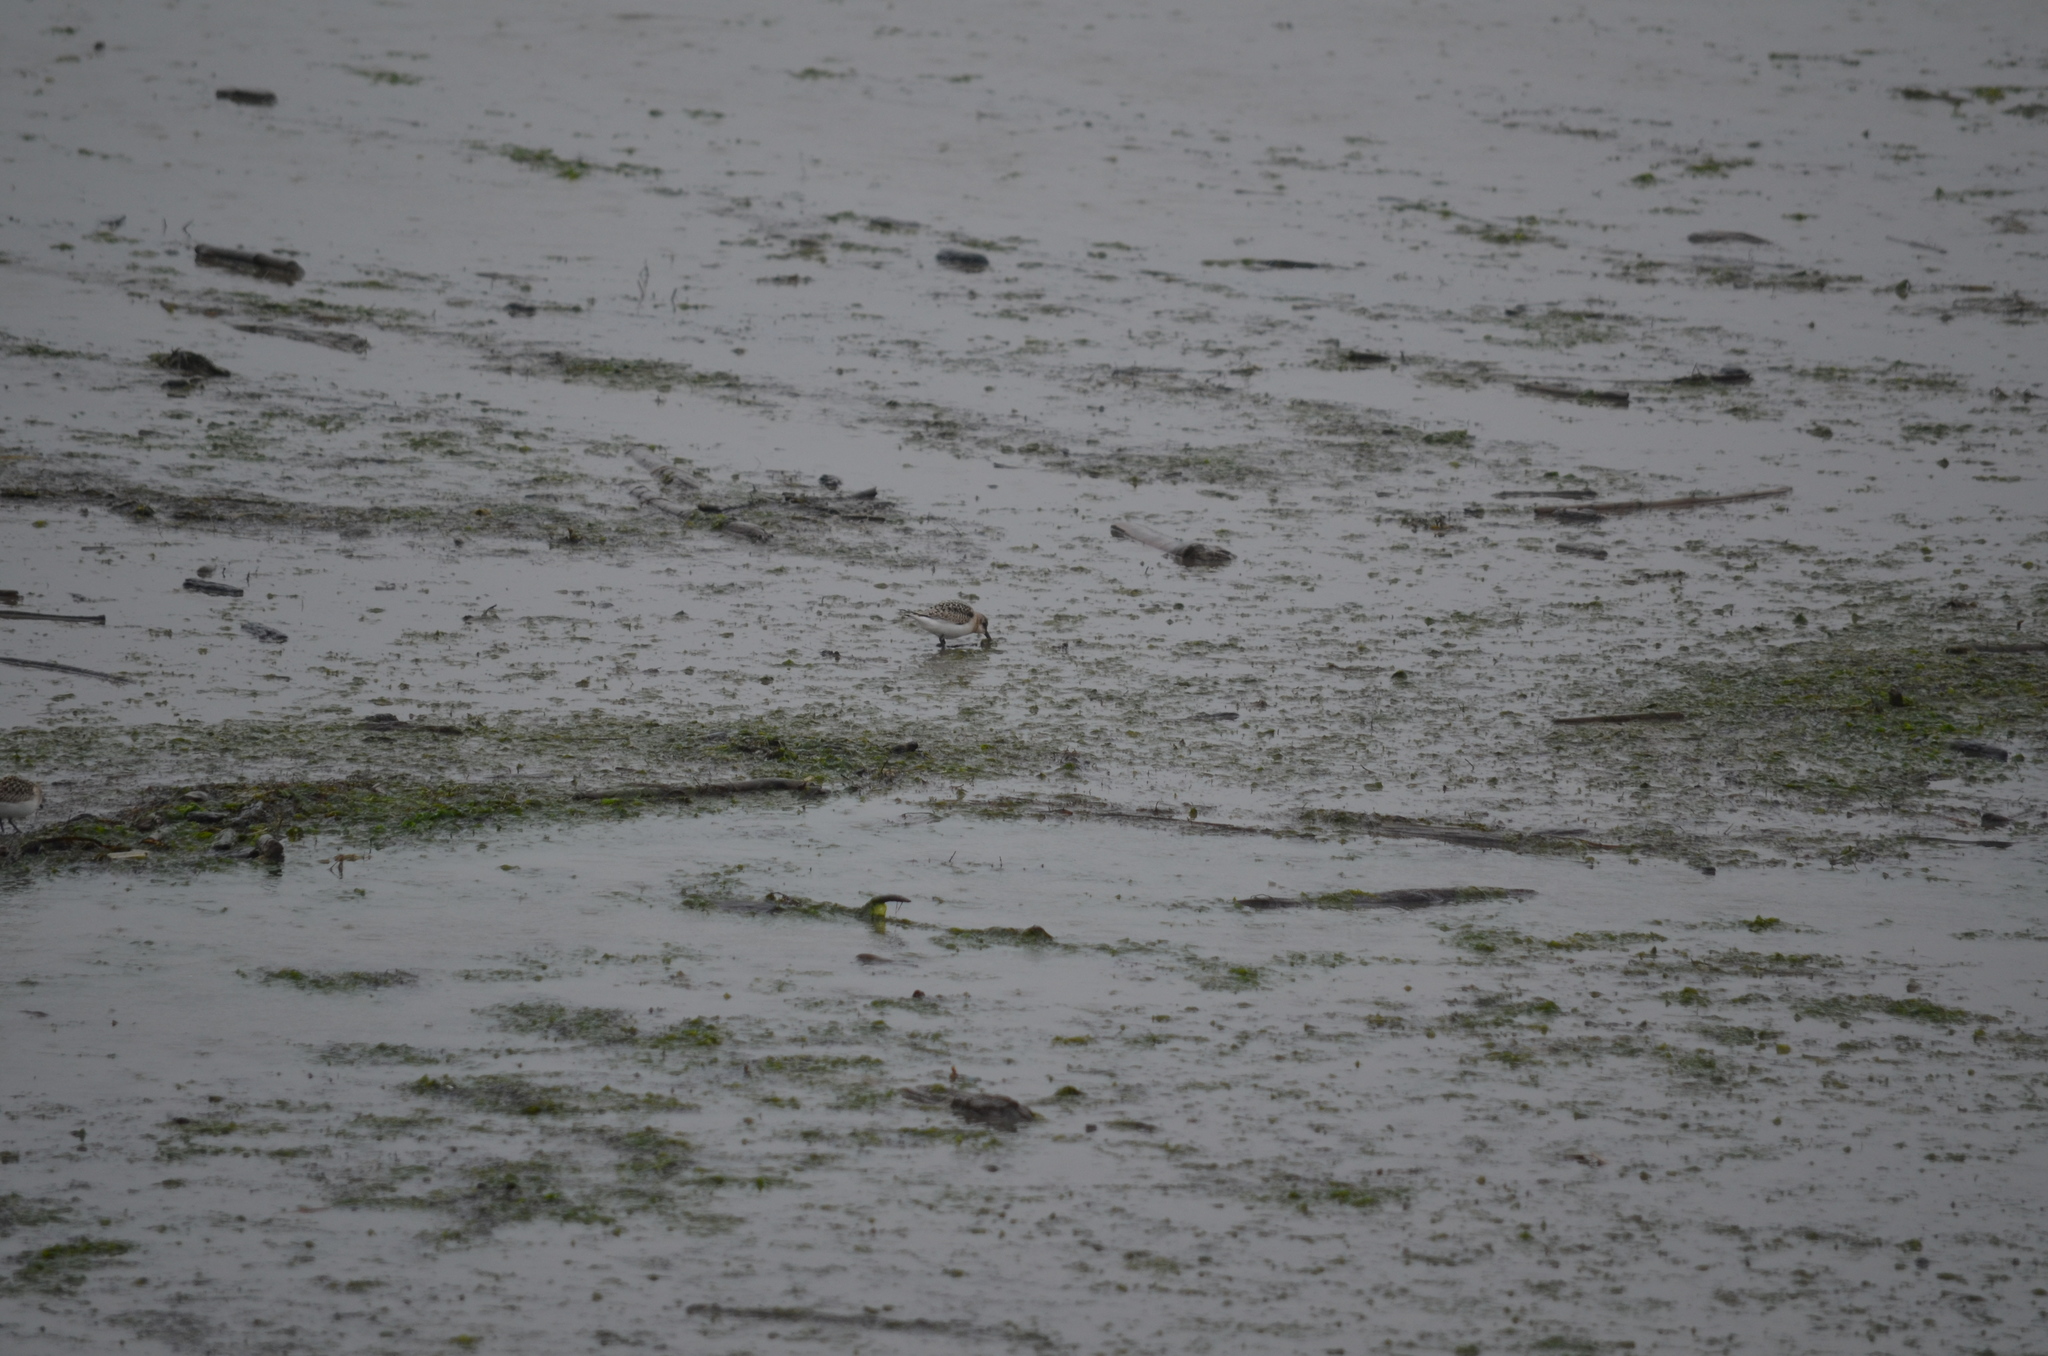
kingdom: Animalia
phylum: Chordata
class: Aves
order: Charadriiformes
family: Scolopacidae
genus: Calidris
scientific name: Calidris alba
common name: Sanderling
